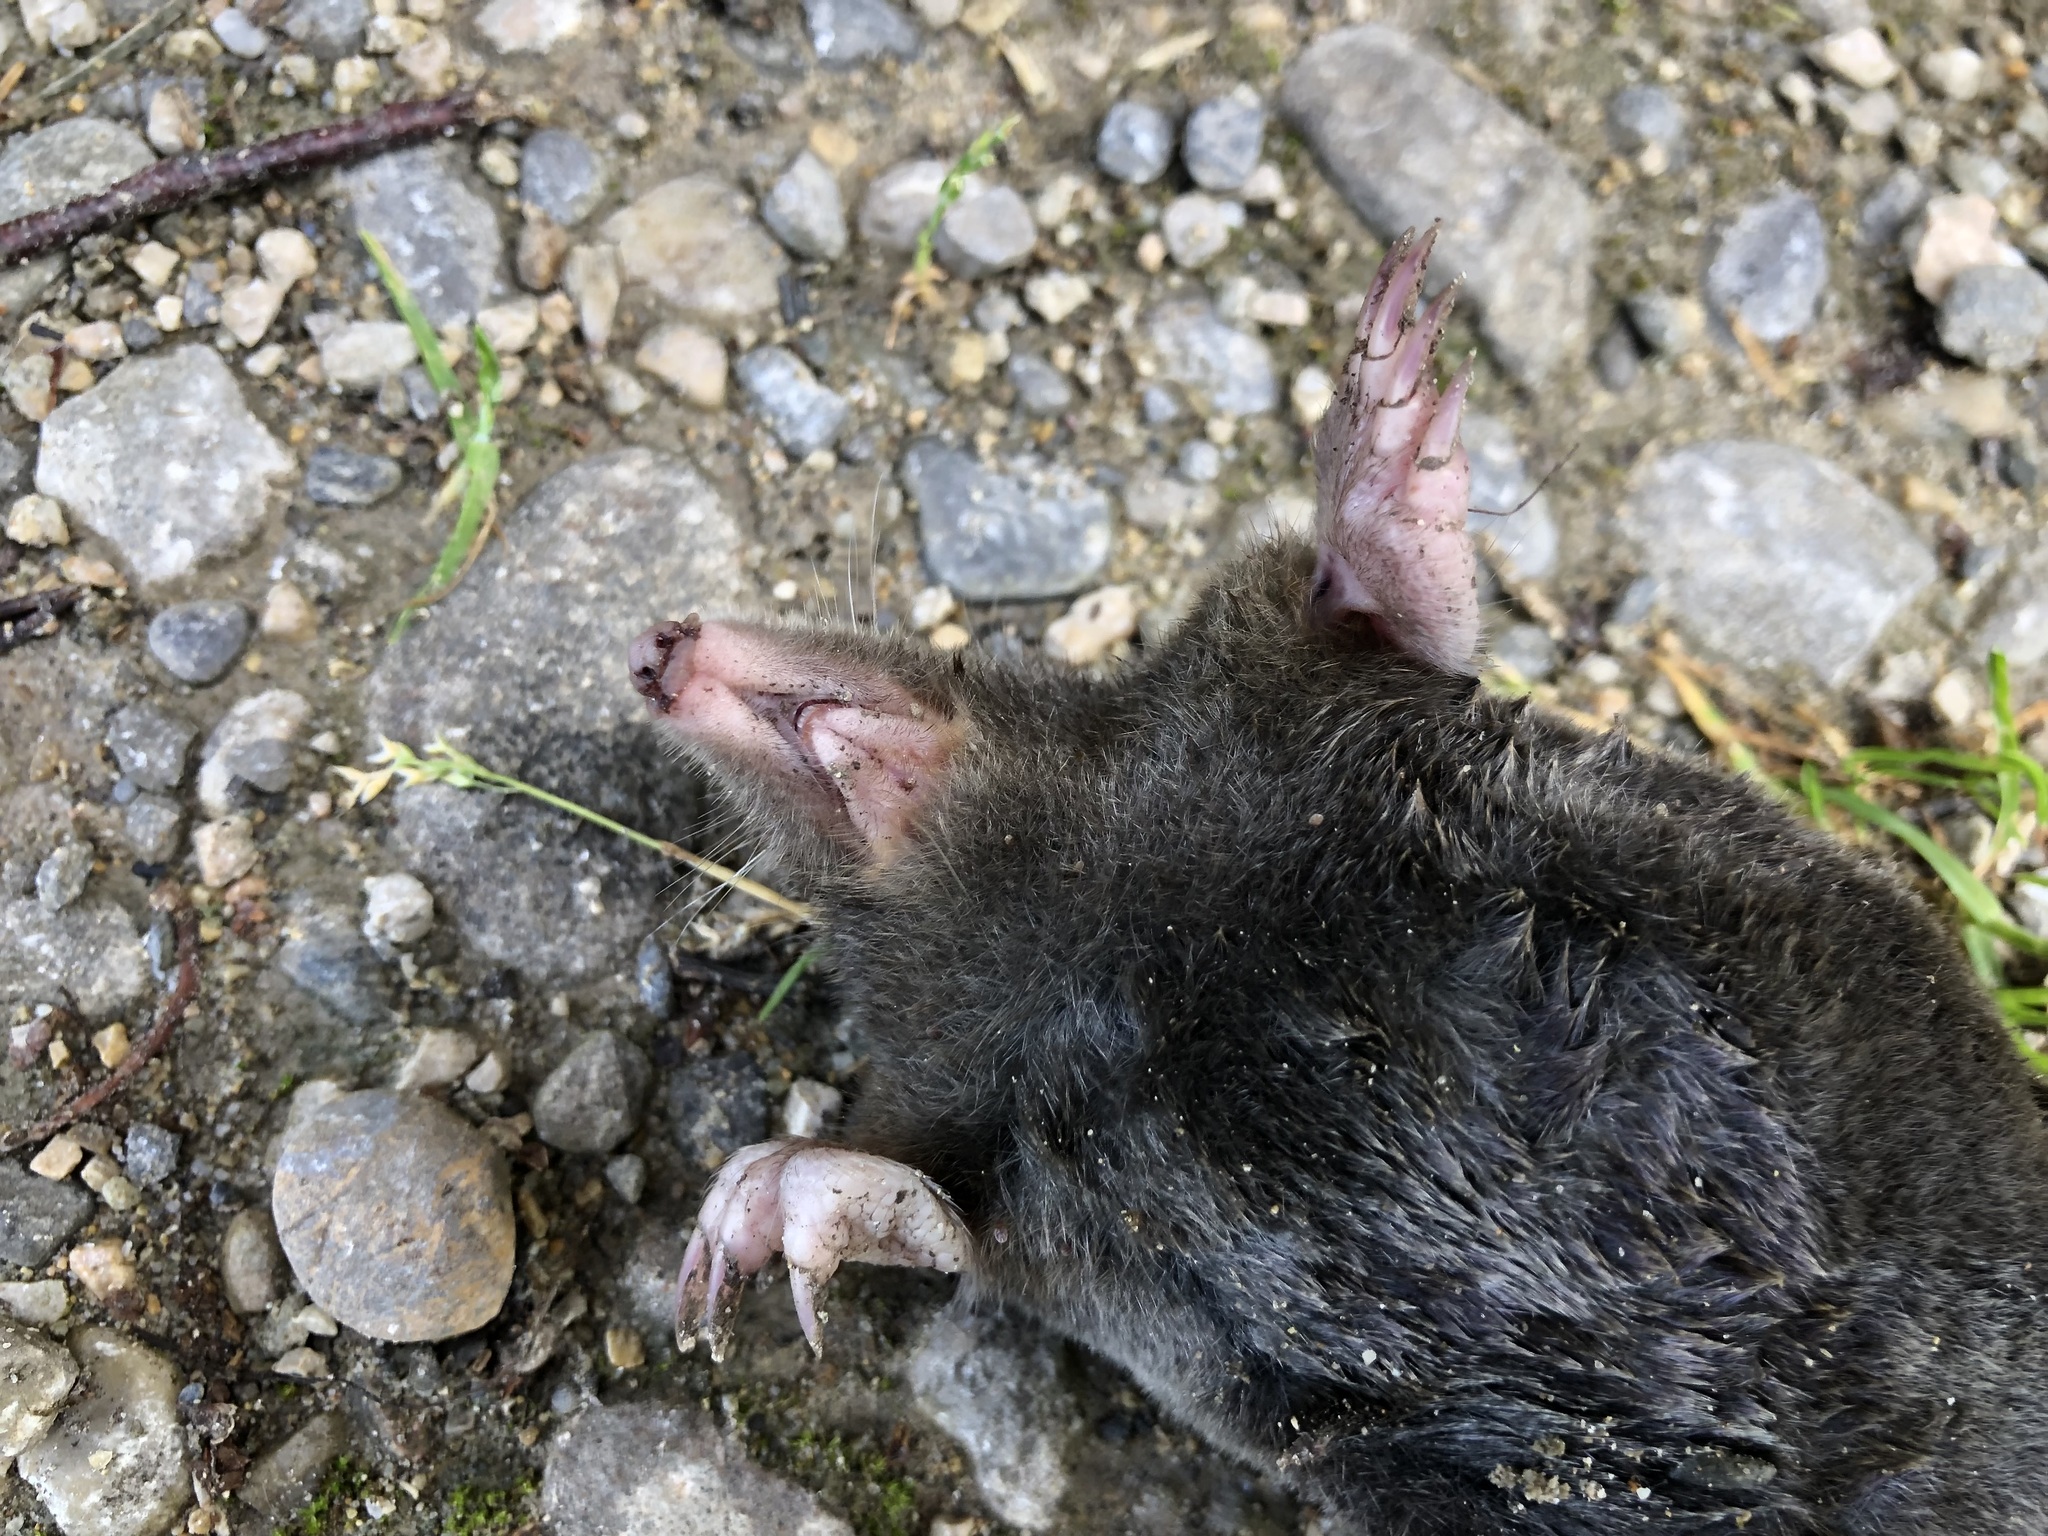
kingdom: Animalia
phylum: Chordata
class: Mammalia
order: Soricomorpha
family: Talpidae
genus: Talpa
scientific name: Talpa europaea
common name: European mole
